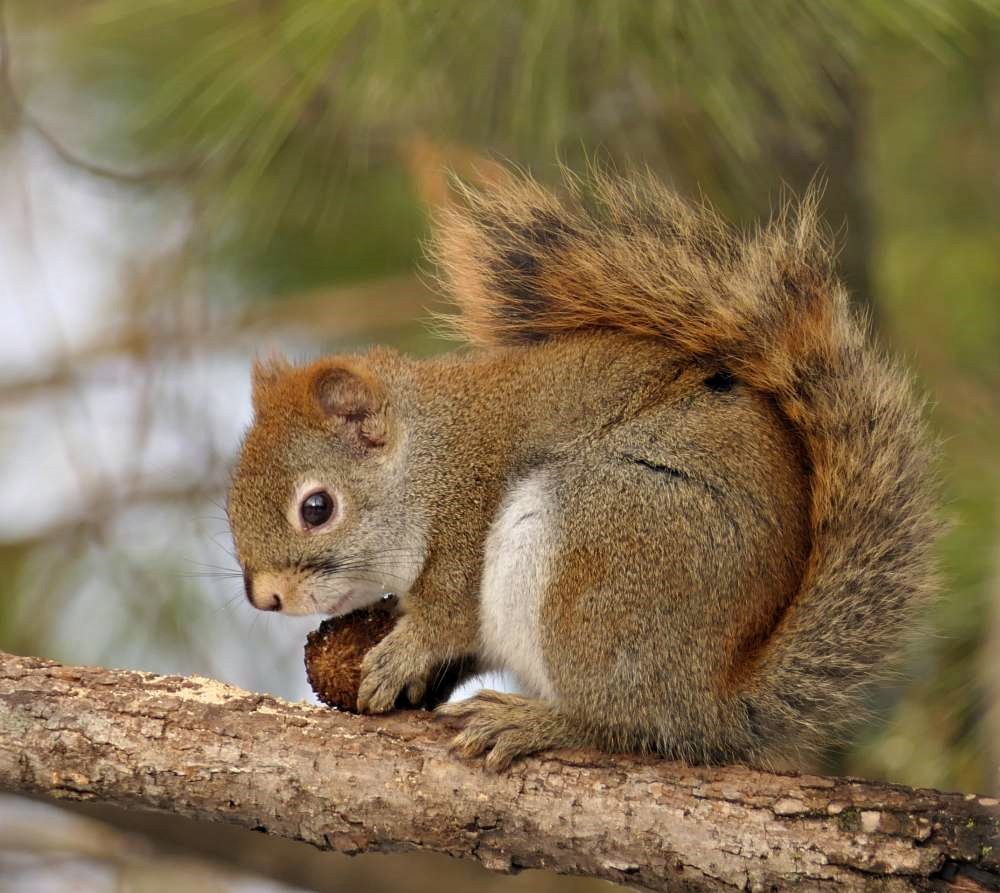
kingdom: Animalia
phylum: Chordata
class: Mammalia
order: Rodentia
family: Sciuridae
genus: Tamiasciurus
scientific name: Tamiasciurus hudsonicus
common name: Red squirrel
